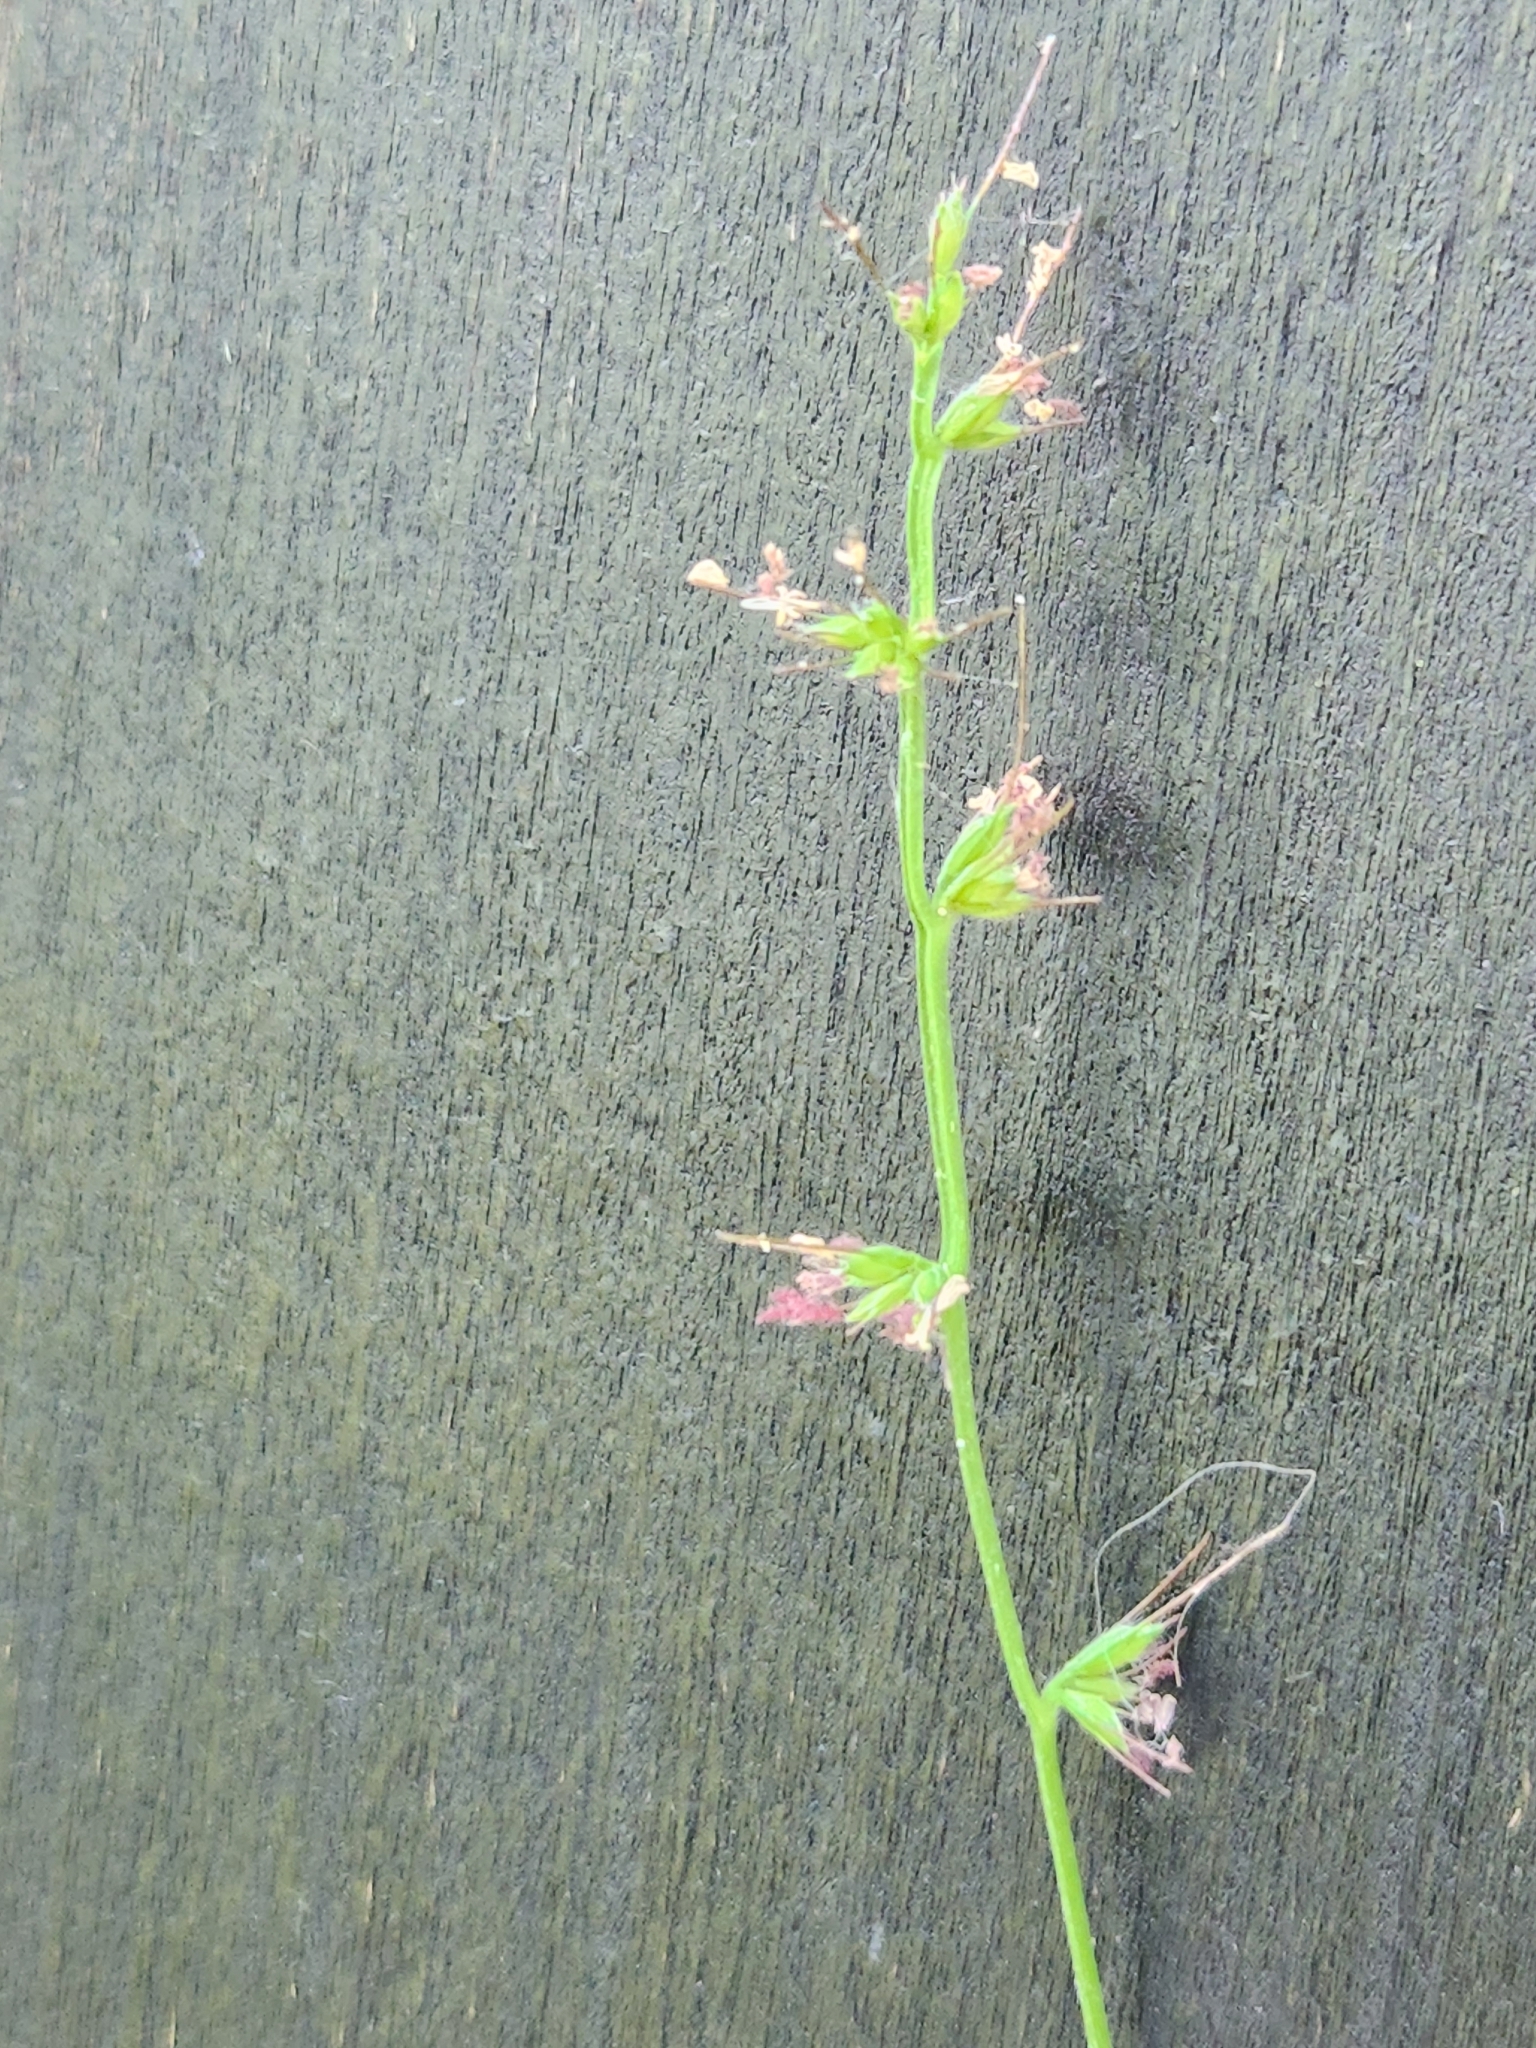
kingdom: Plantae
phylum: Tracheophyta
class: Liliopsida
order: Poales
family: Poaceae
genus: Oplismenus
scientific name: Oplismenus hirtellus
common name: Basketgrass
